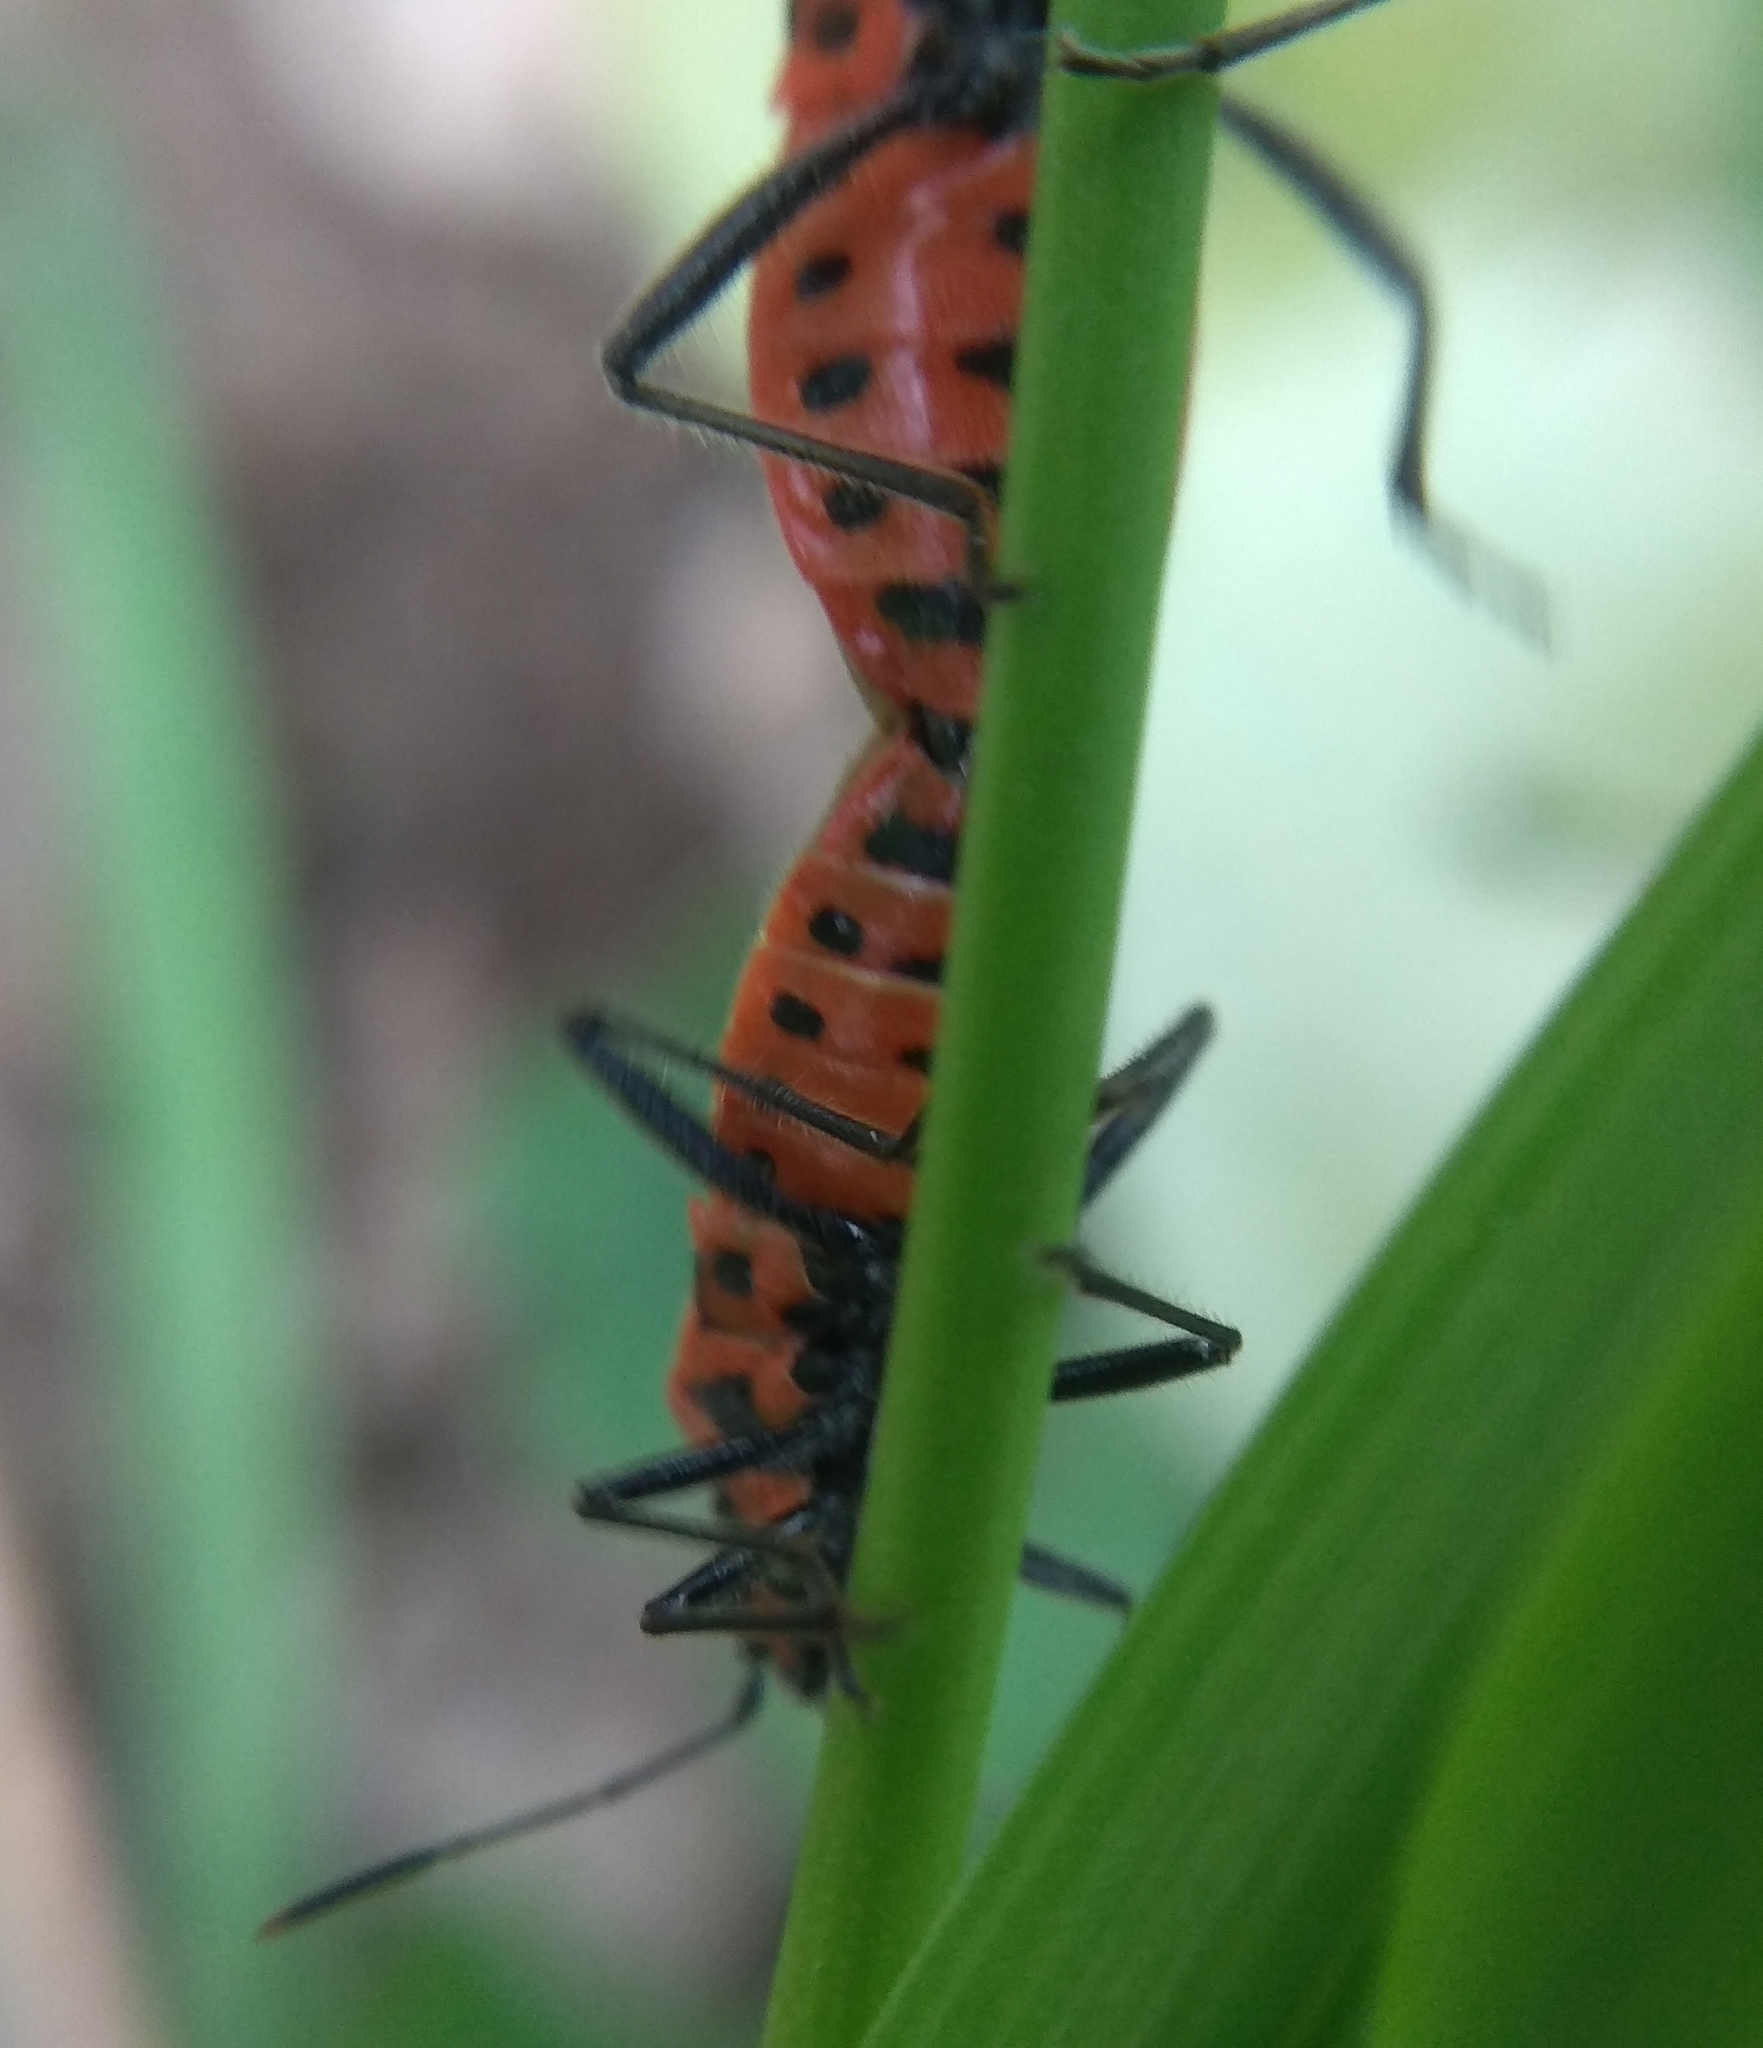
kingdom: Animalia
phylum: Arthropoda
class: Insecta
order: Hemiptera
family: Rhopalidae
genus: Corizus
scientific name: Corizus hyoscyami
